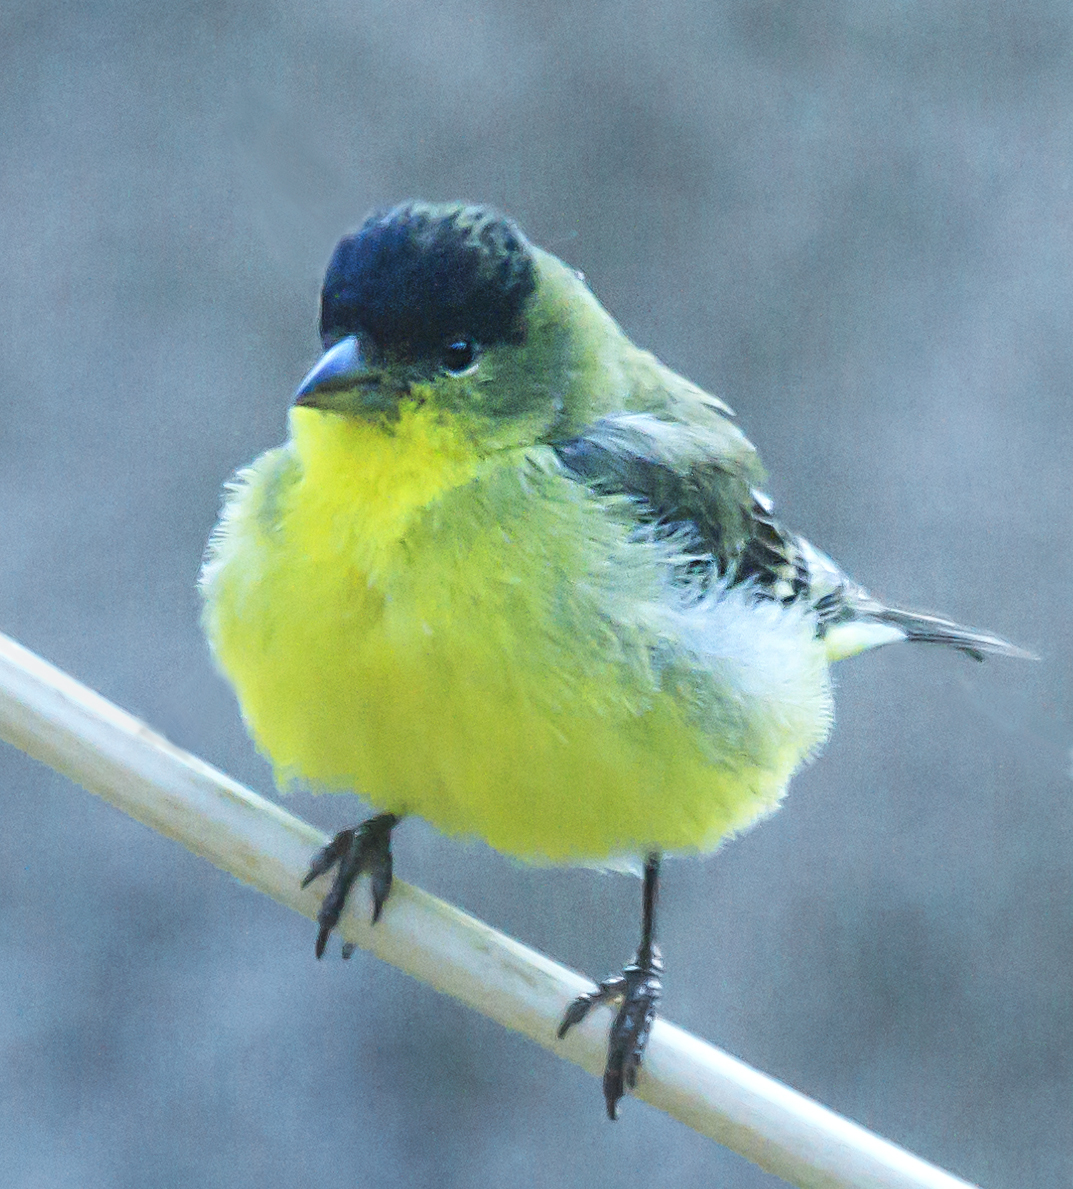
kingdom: Animalia
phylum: Chordata
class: Aves
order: Passeriformes
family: Fringillidae
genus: Spinus
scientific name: Spinus psaltria
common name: Lesser goldfinch
